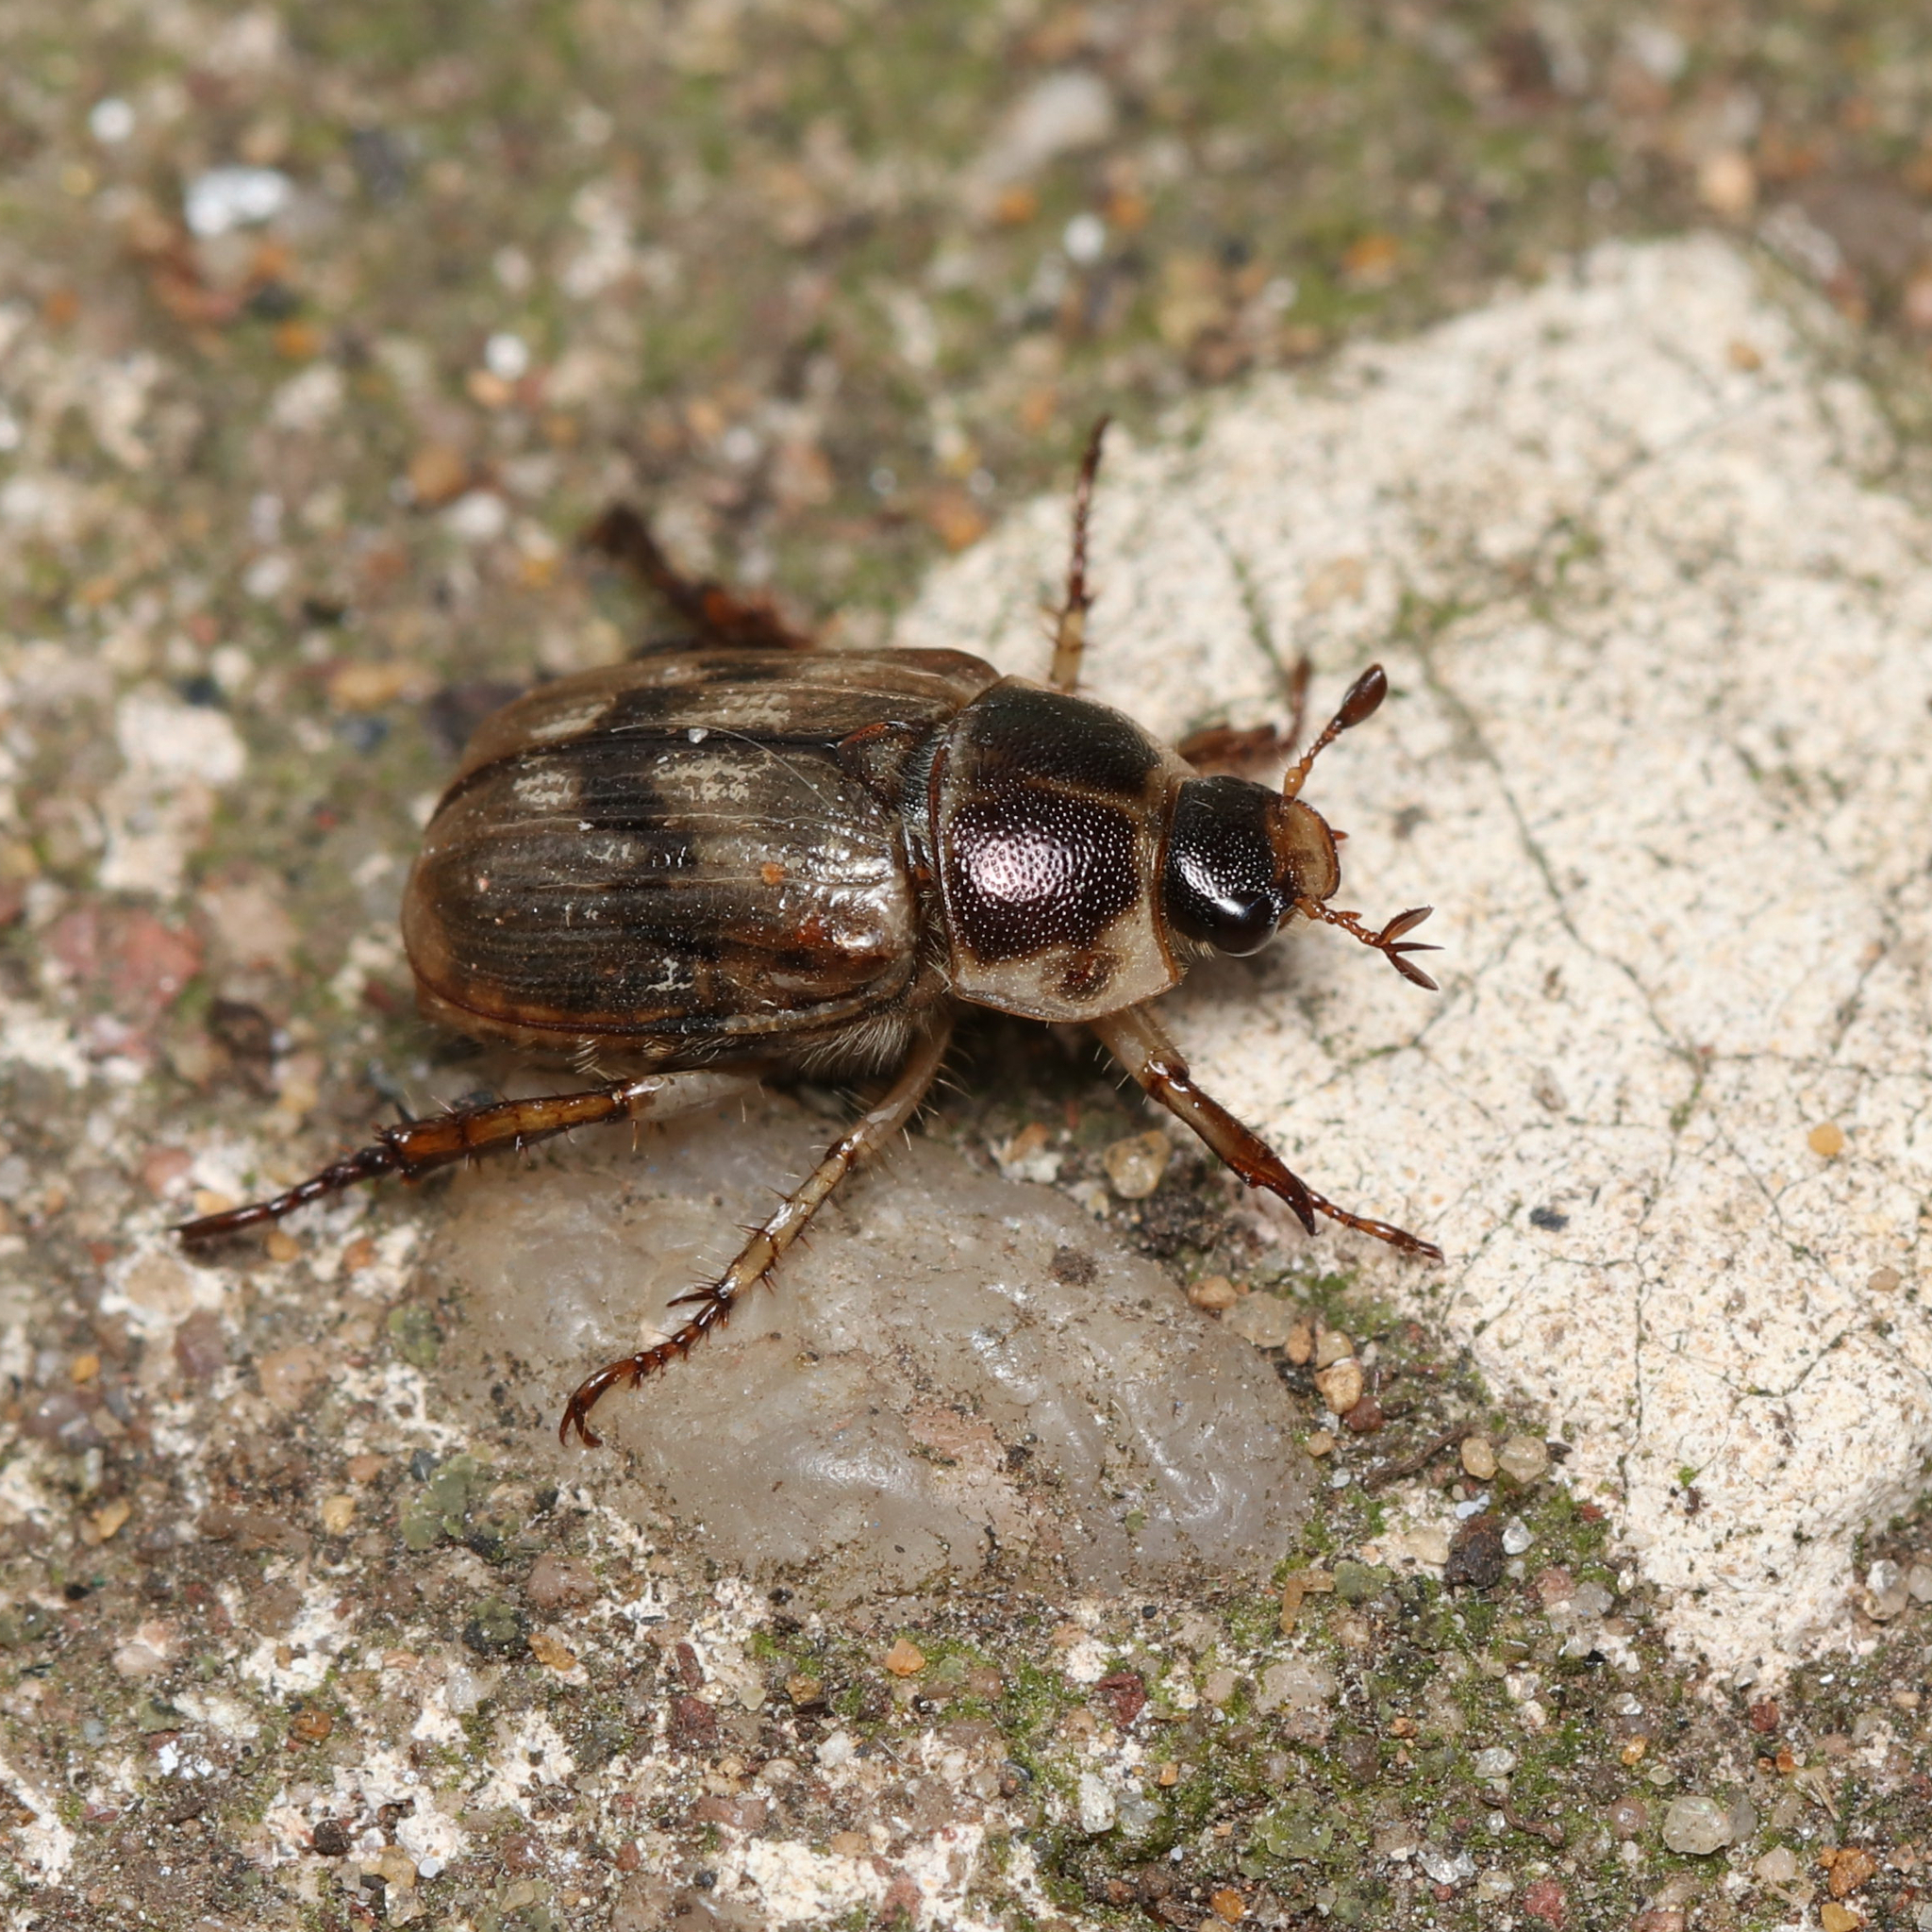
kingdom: Animalia
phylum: Arthropoda
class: Insecta
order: Coleoptera
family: Scarabaeidae
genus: Exomala
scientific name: Exomala orientalis
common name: Oriental beetle
